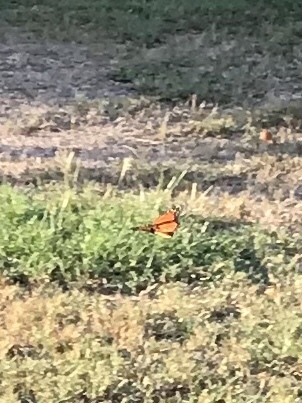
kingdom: Animalia
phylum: Arthropoda
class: Insecta
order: Lepidoptera
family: Nymphalidae
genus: Danaus
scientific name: Danaus plexippus
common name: Monarch
